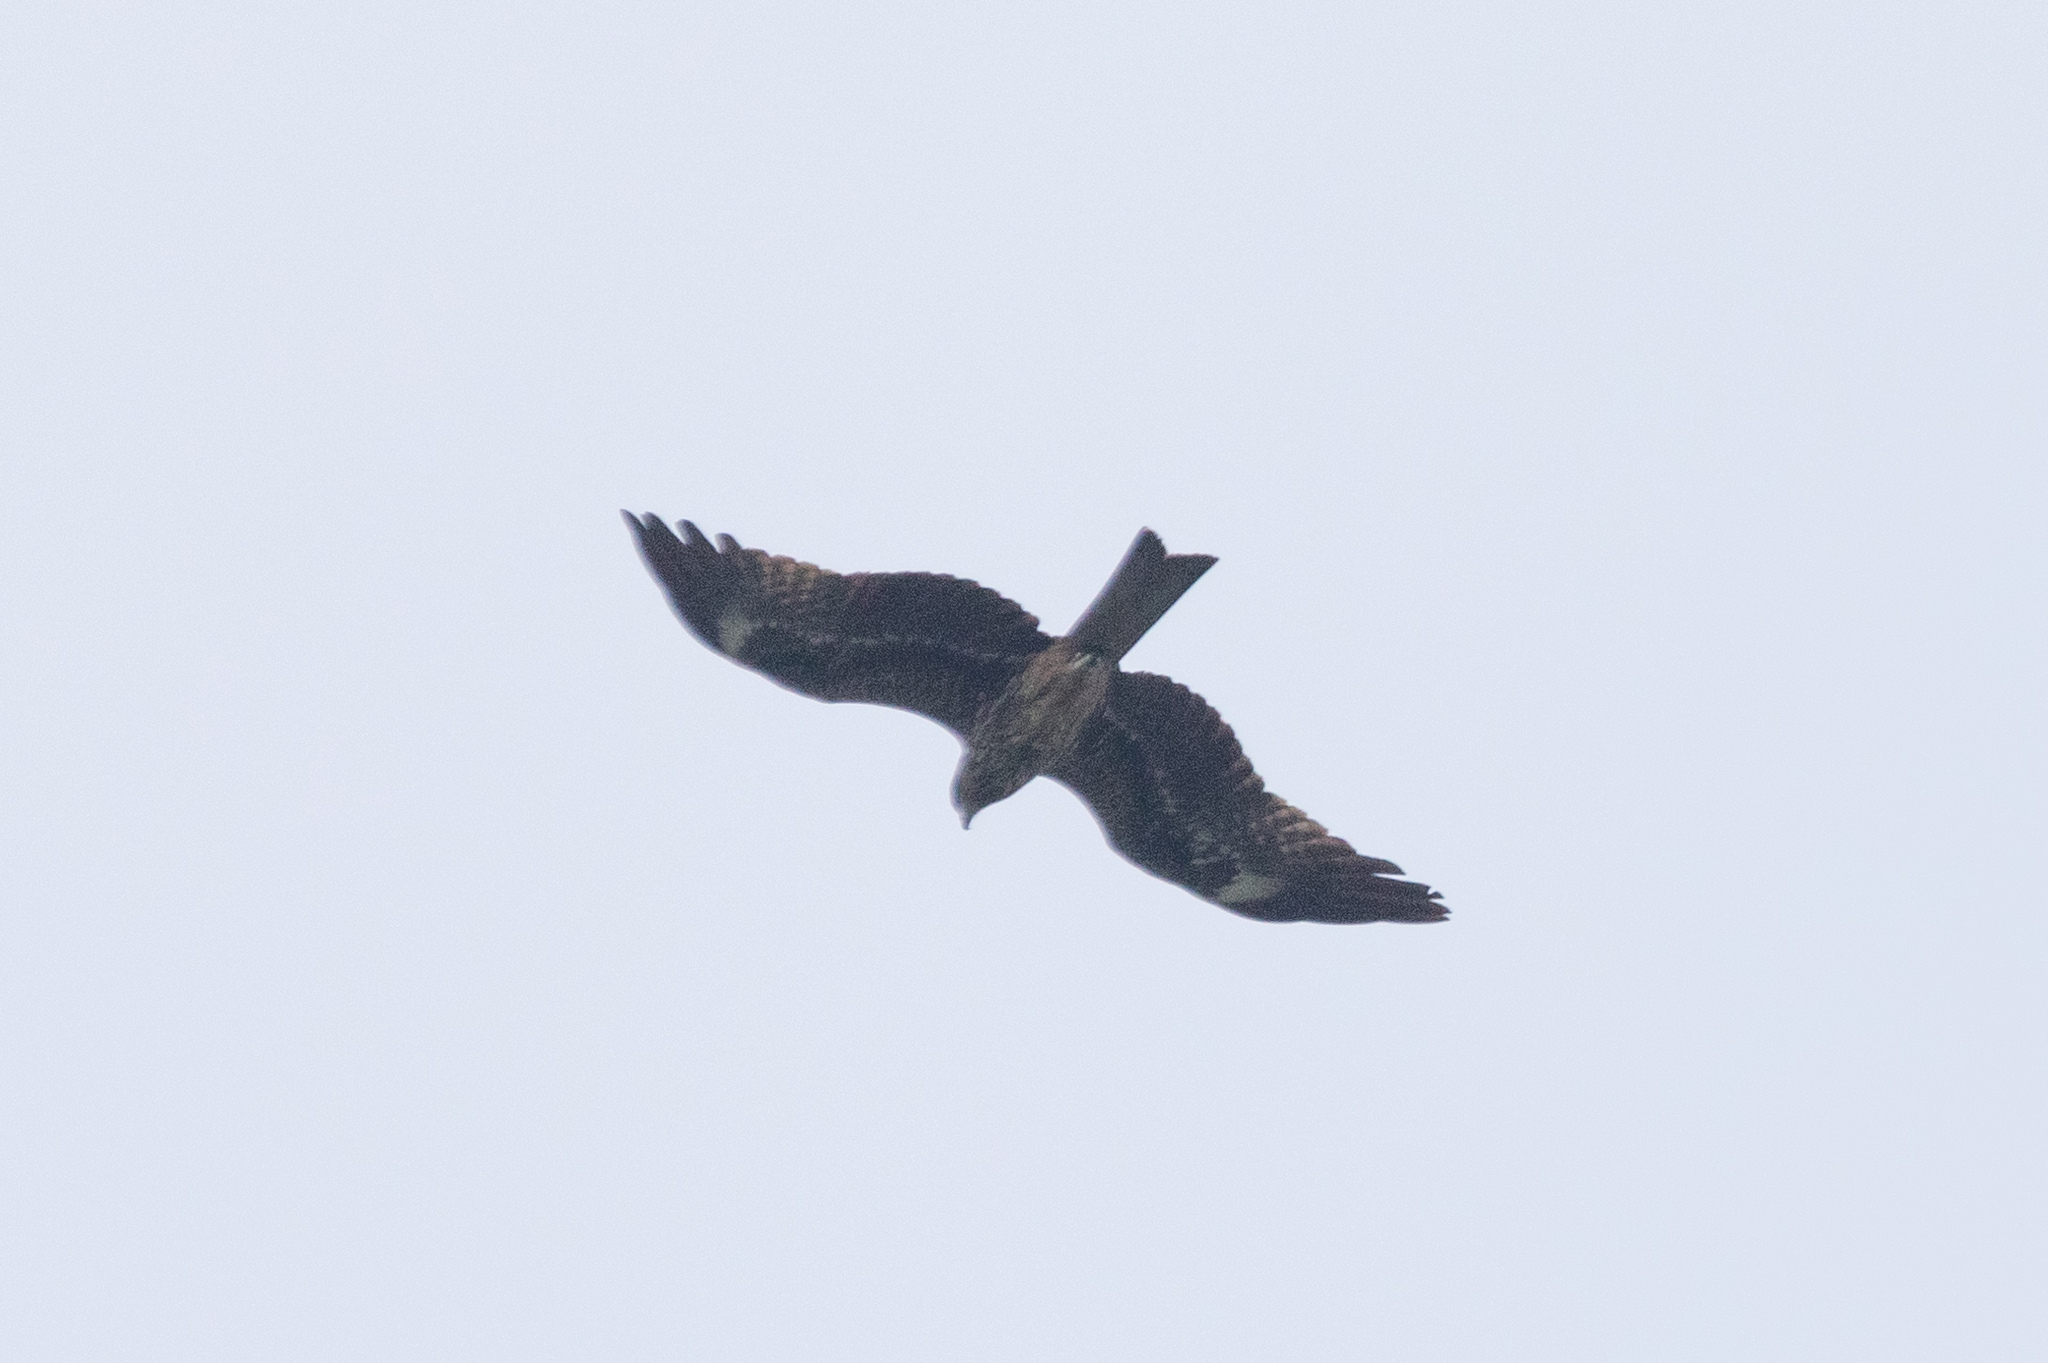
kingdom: Animalia
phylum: Chordata
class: Aves
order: Accipitriformes
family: Accipitridae
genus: Milvus
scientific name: Milvus migrans
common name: Black kite
